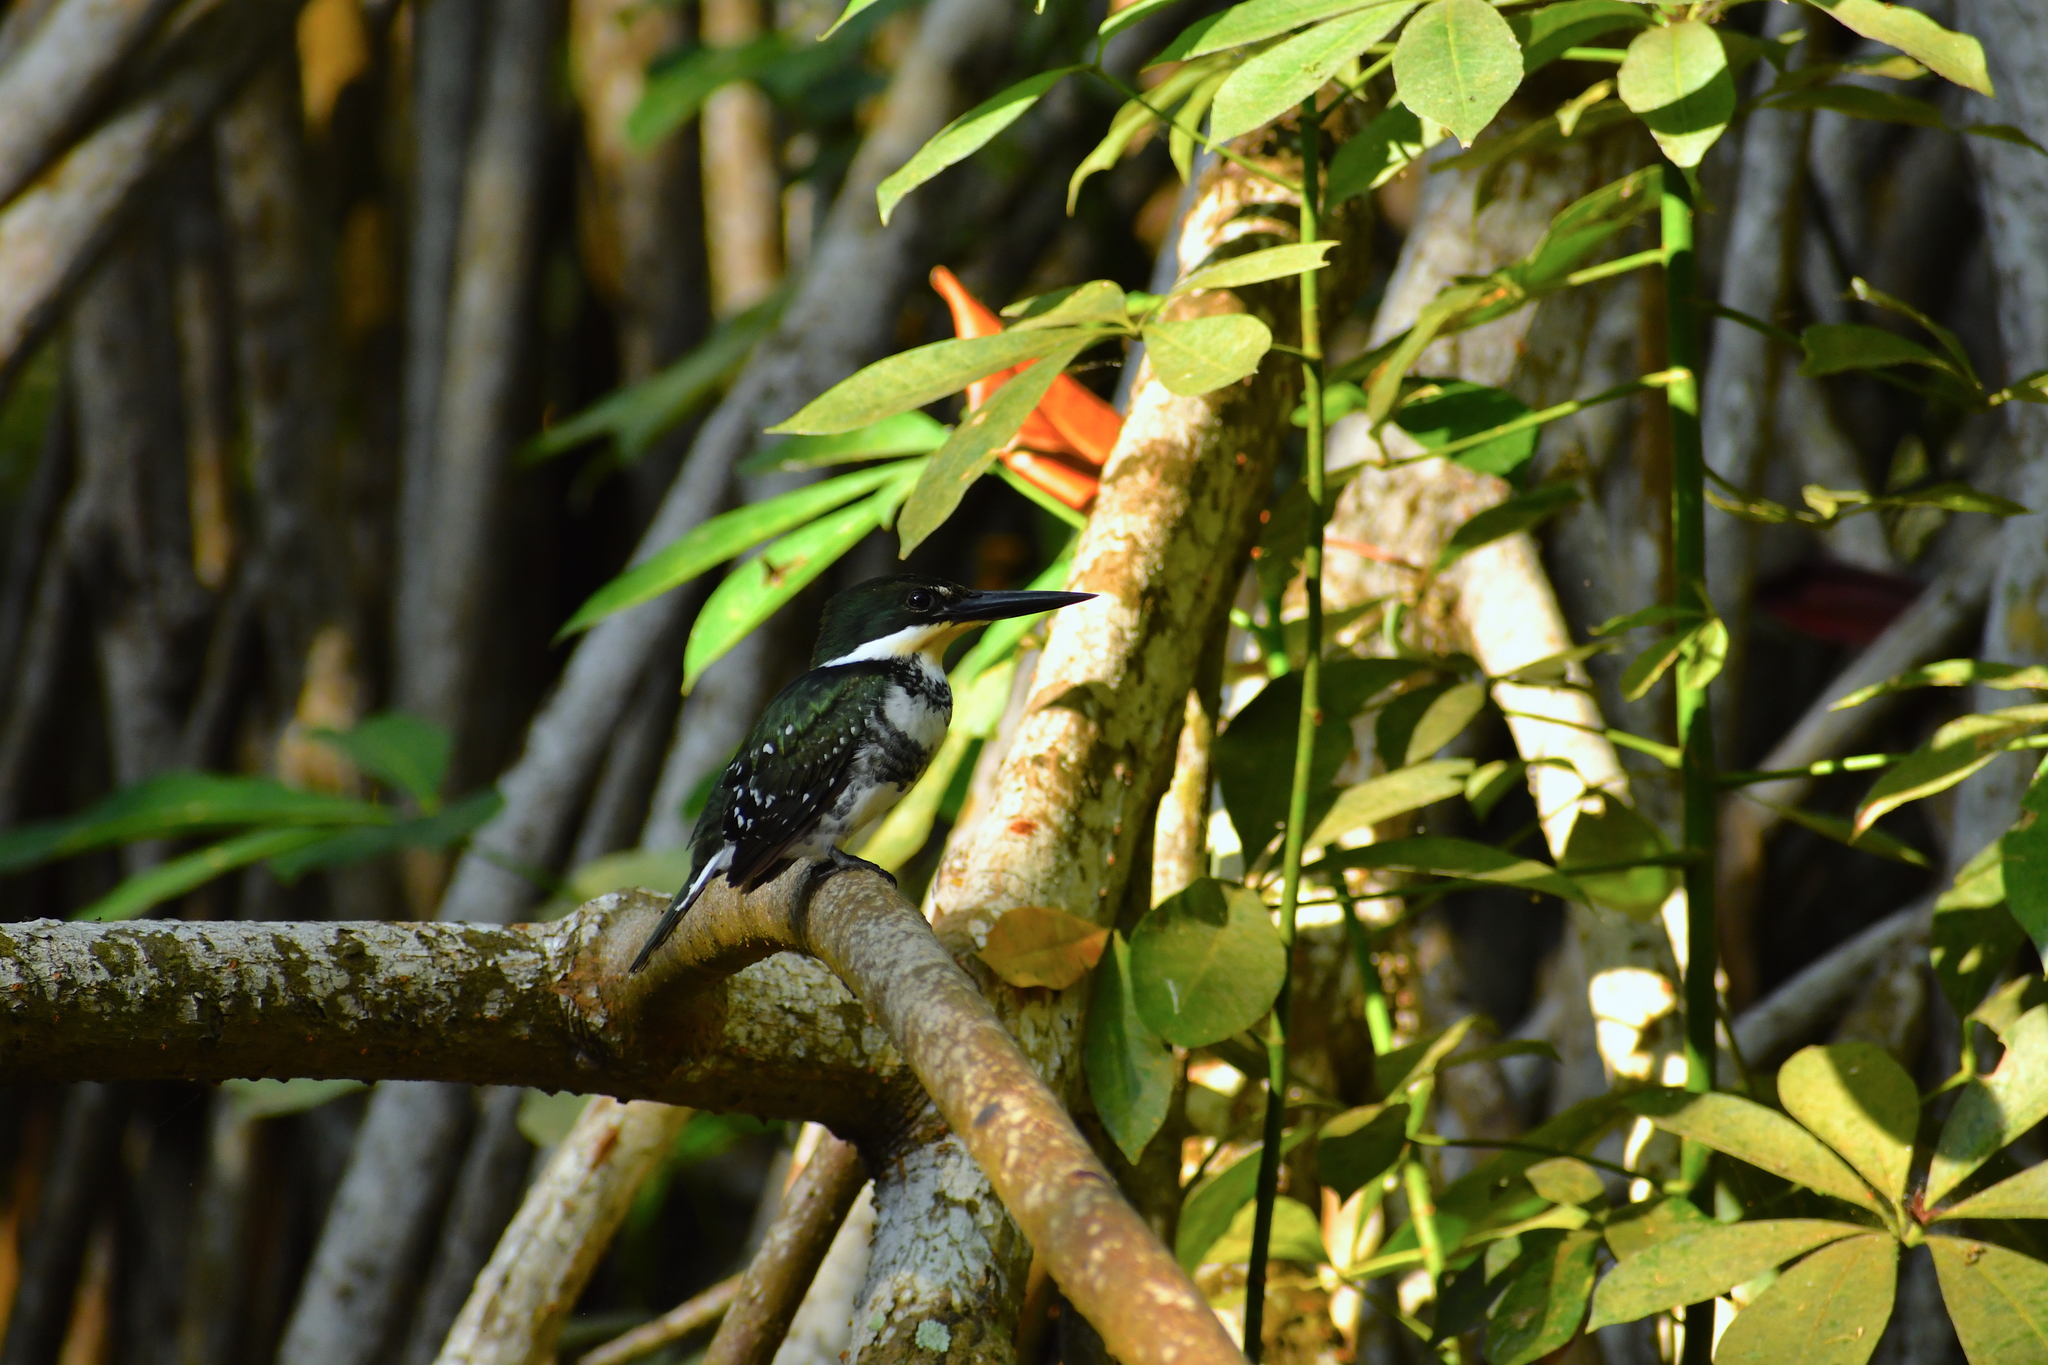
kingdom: Animalia
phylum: Chordata
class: Aves
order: Coraciiformes
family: Alcedinidae
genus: Chloroceryle
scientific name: Chloroceryle americana
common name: Green kingfisher
